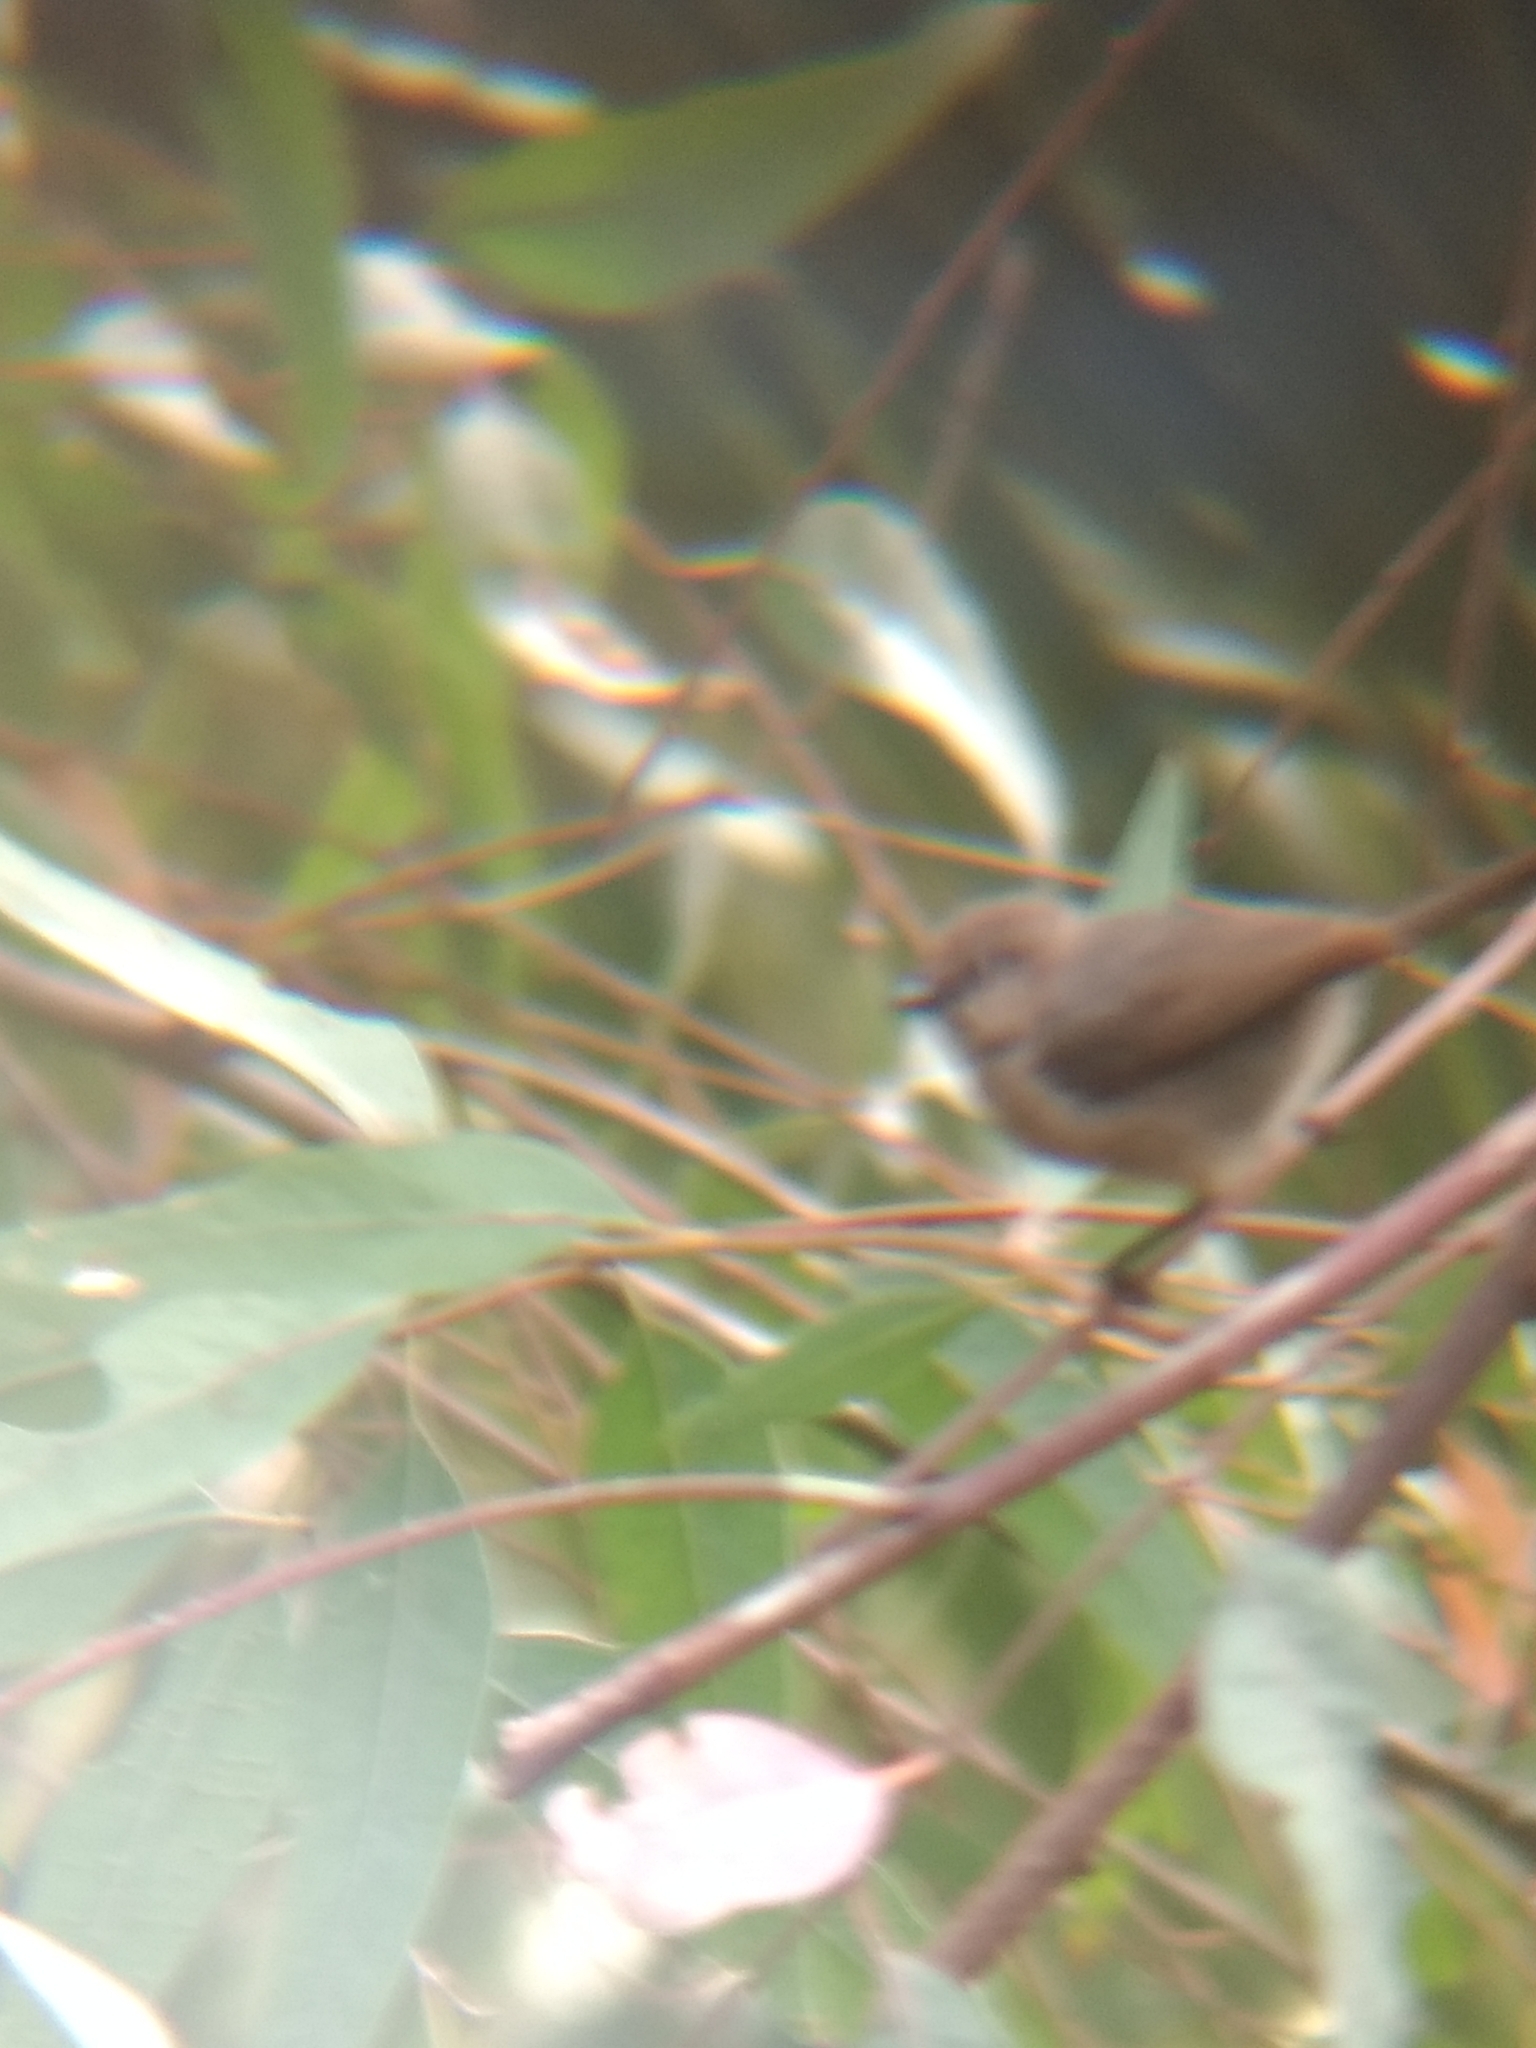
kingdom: Animalia
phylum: Chordata
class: Aves
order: Passeriformes
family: Aegithalidae
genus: Psaltriparus
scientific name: Psaltriparus minimus
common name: American bushtit
